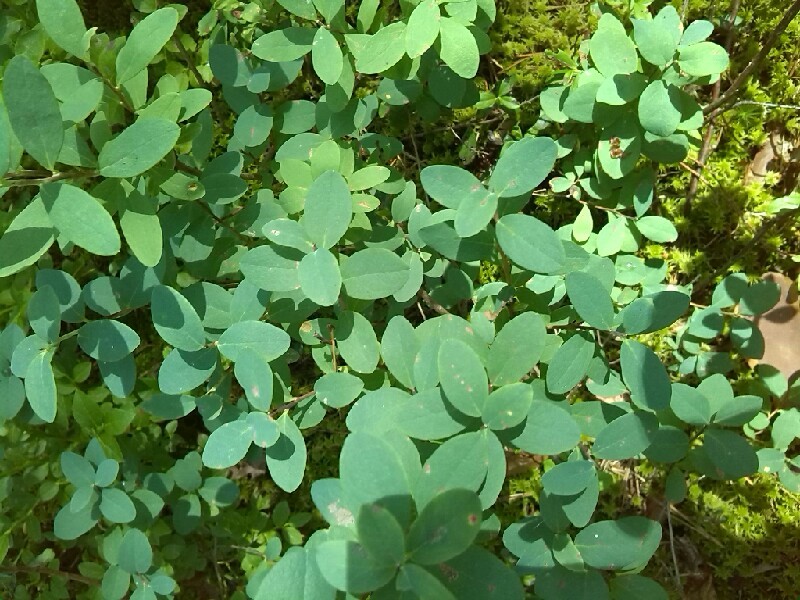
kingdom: Plantae
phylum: Tracheophyta
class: Magnoliopsida
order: Ericales
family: Ericaceae
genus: Vaccinium
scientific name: Vaccinium uliginosum
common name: Bog bilberry
